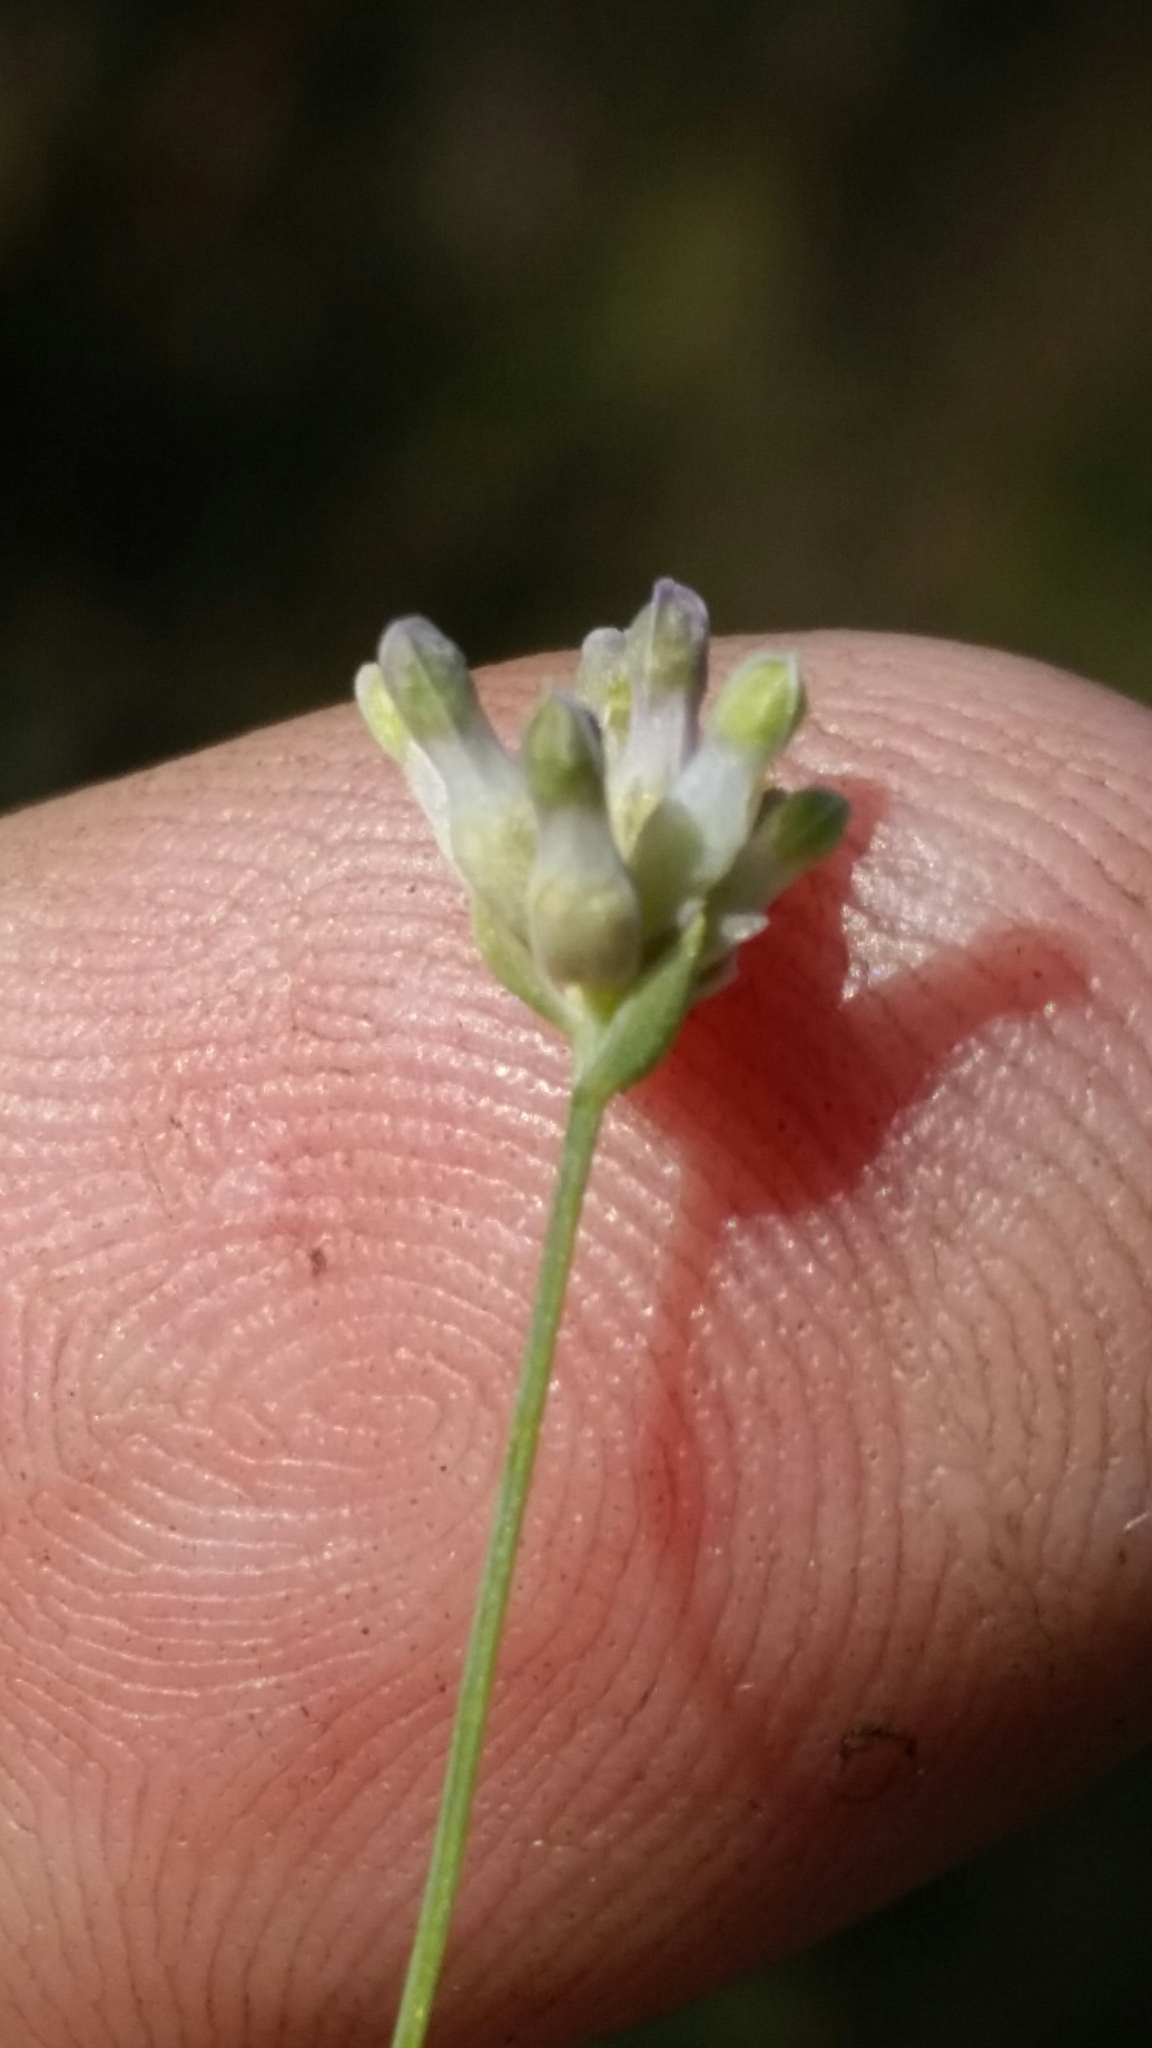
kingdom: Plantae
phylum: Tracheophyta
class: Liliopsida
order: Dioscoreales
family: Burmanniaceae
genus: Burmannia
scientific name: Burmannia capitata
